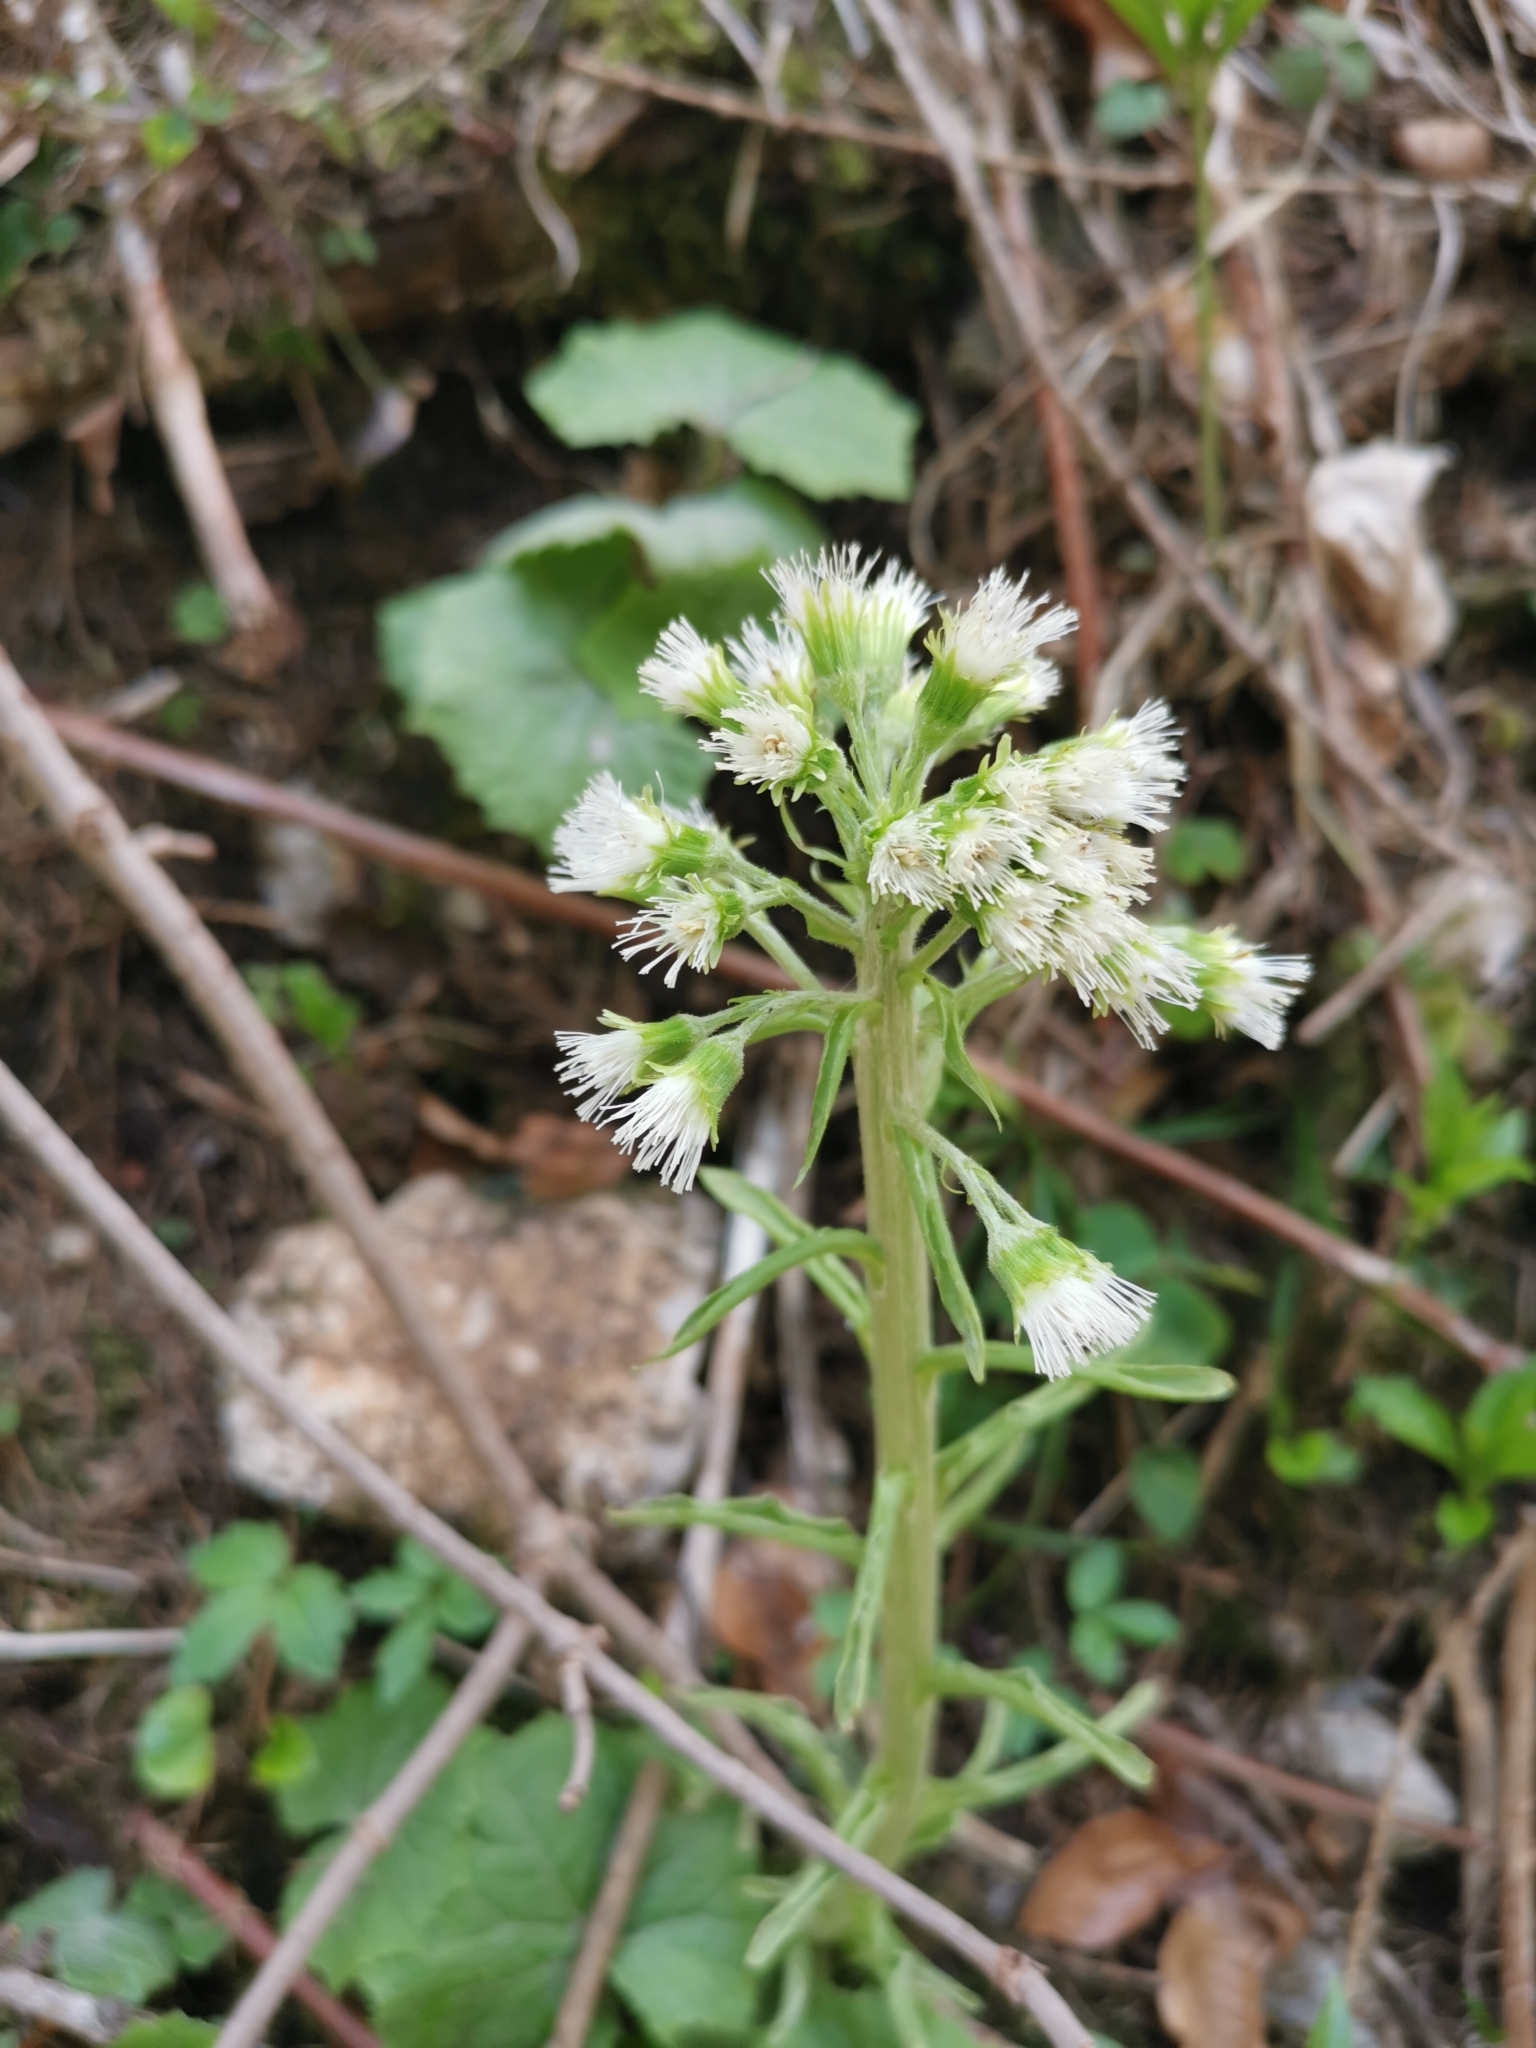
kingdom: Plantae
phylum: Tracheophyta
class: Magnoliopsida
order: Asterales
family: Asteraceae
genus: Petasites
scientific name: Petasites albus
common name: White butterbur
